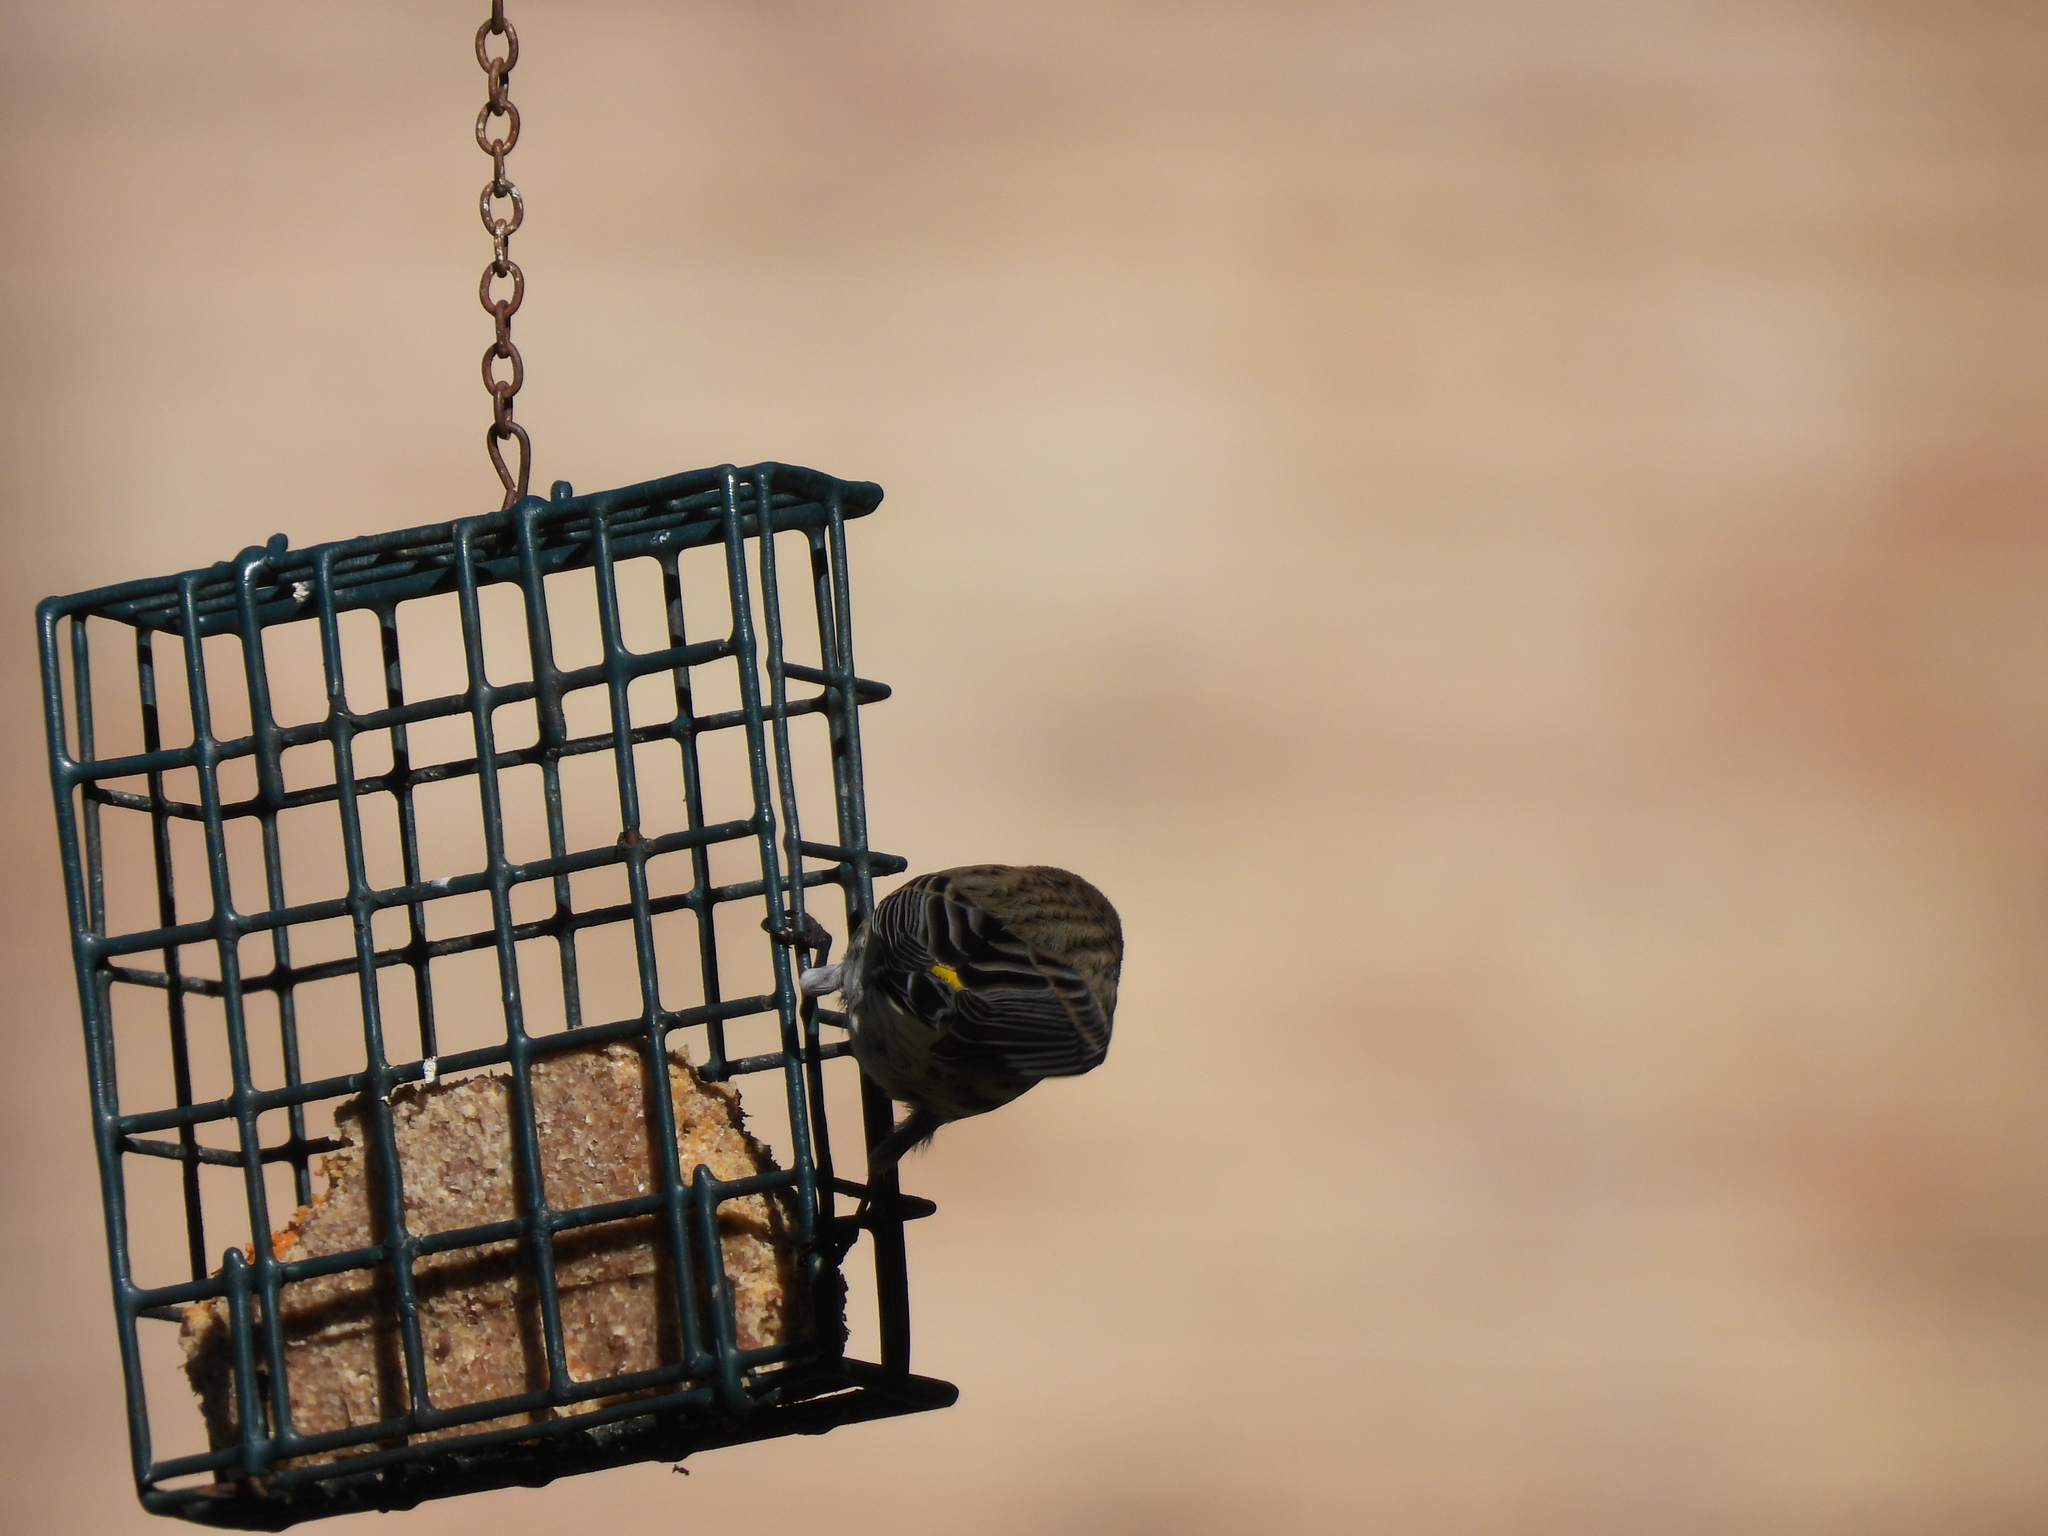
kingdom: Animalia
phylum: Chordata
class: Aves
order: Passeriformes
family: Parulidae
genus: Setophaga
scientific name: Setophaga coronata
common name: Myrtle warbler
